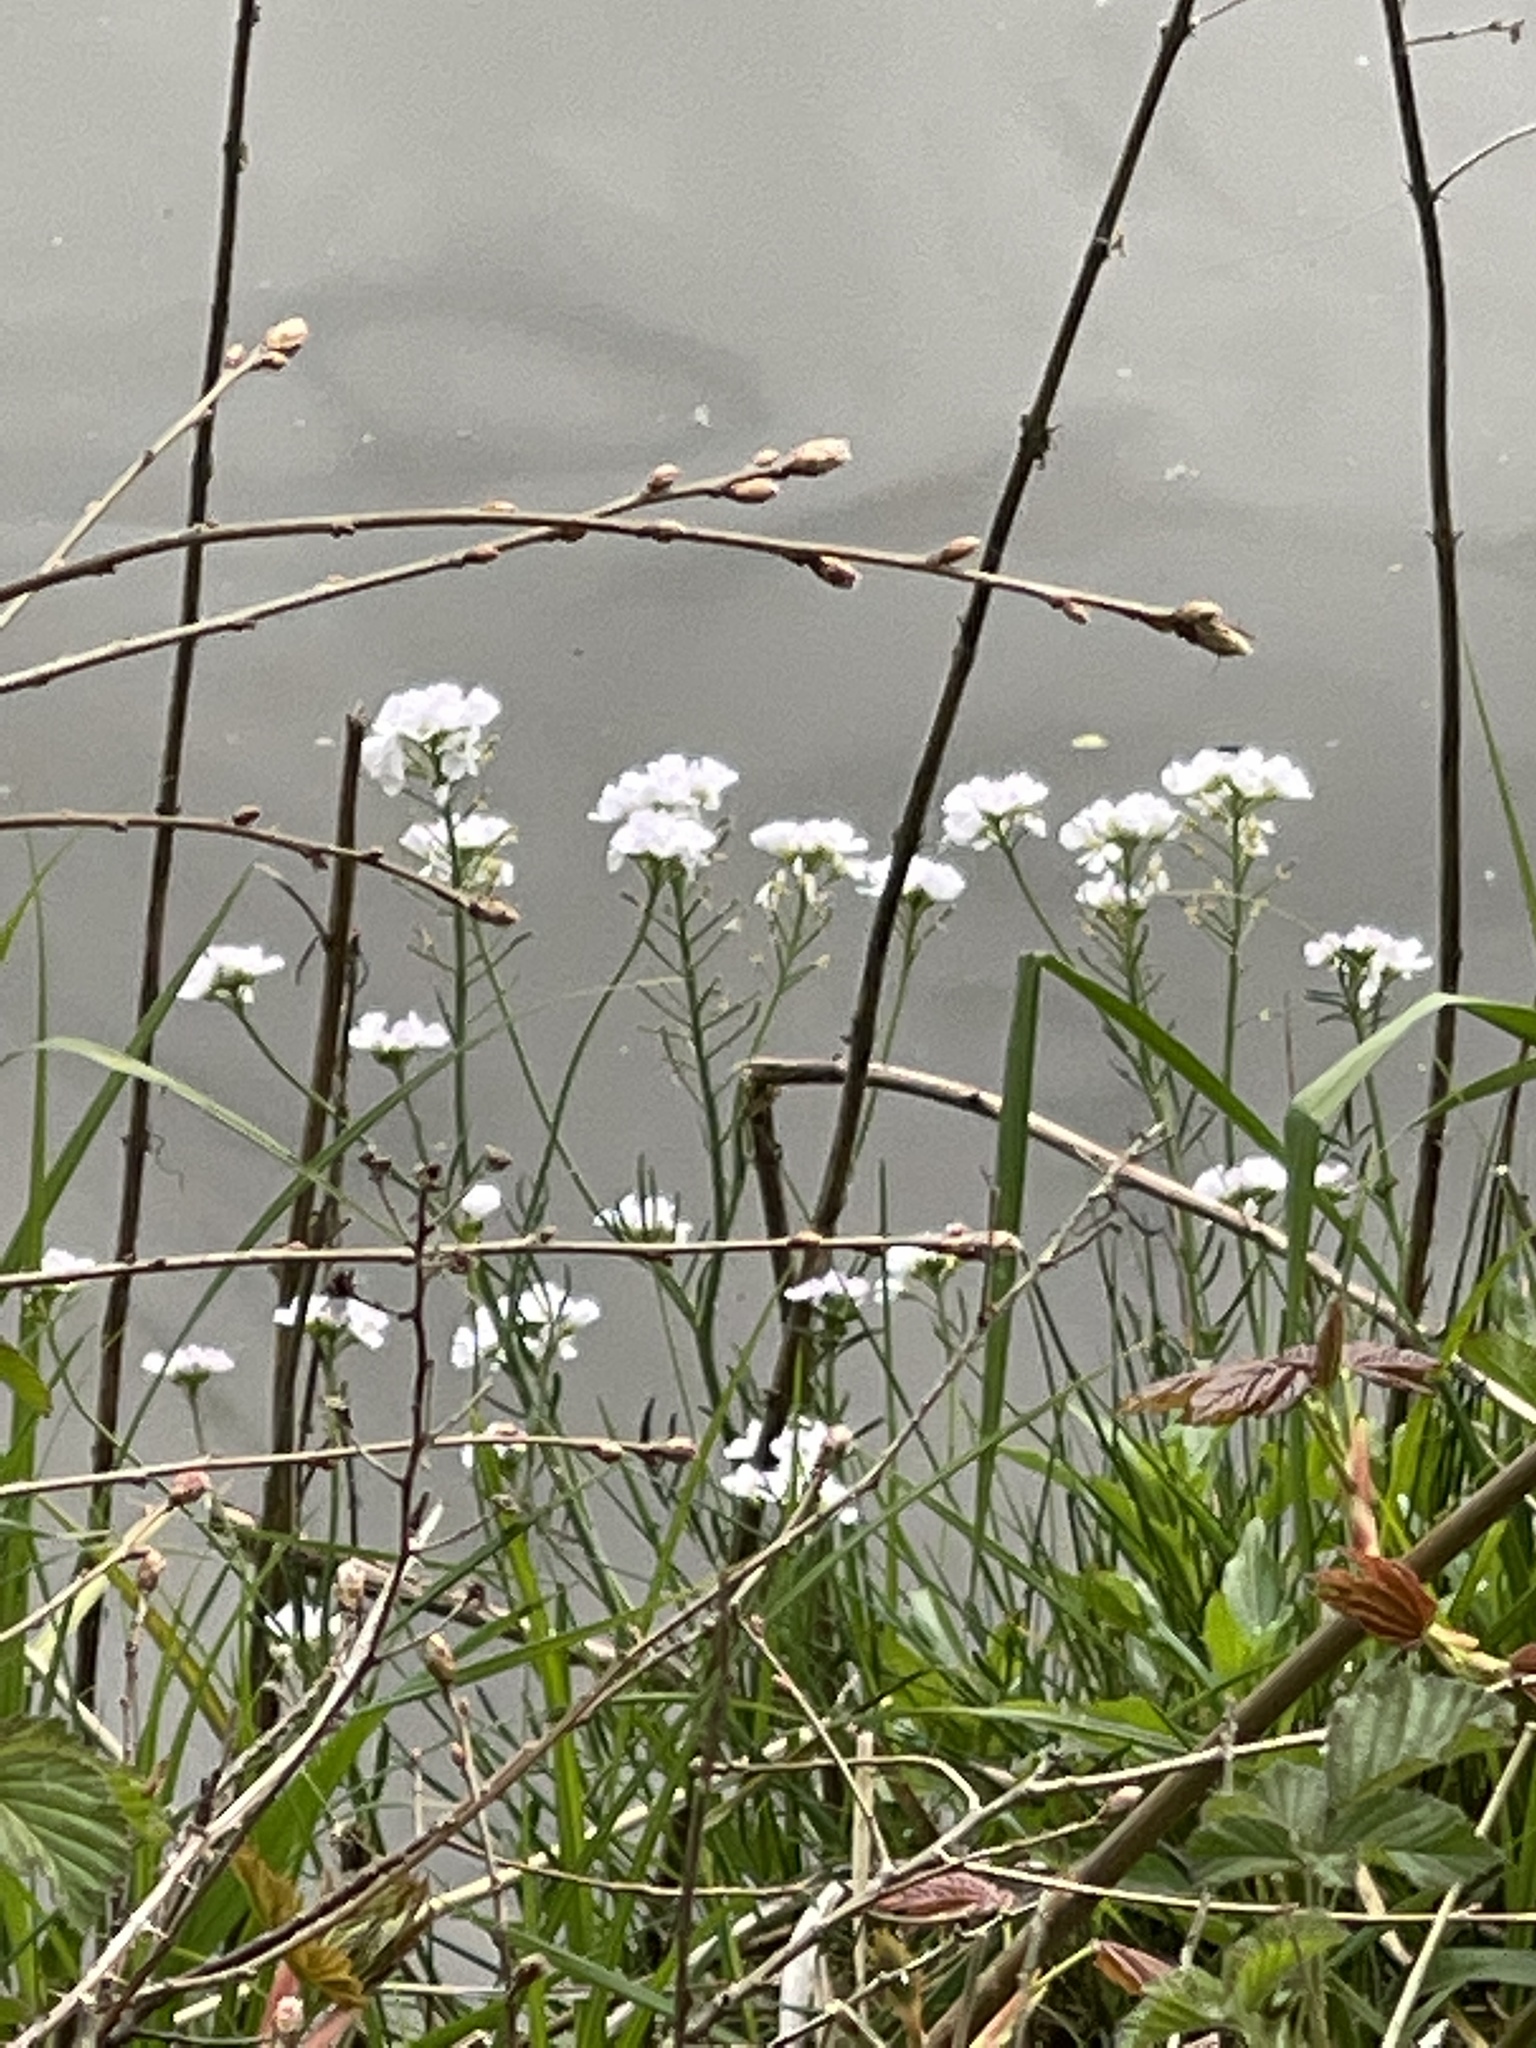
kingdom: Plantae
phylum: Tracheophyta
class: Magnoliopsida
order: Brassicales
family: Brassicaceae
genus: Cardamine
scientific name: Cardamine pratensis
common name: Cuckoo flower
